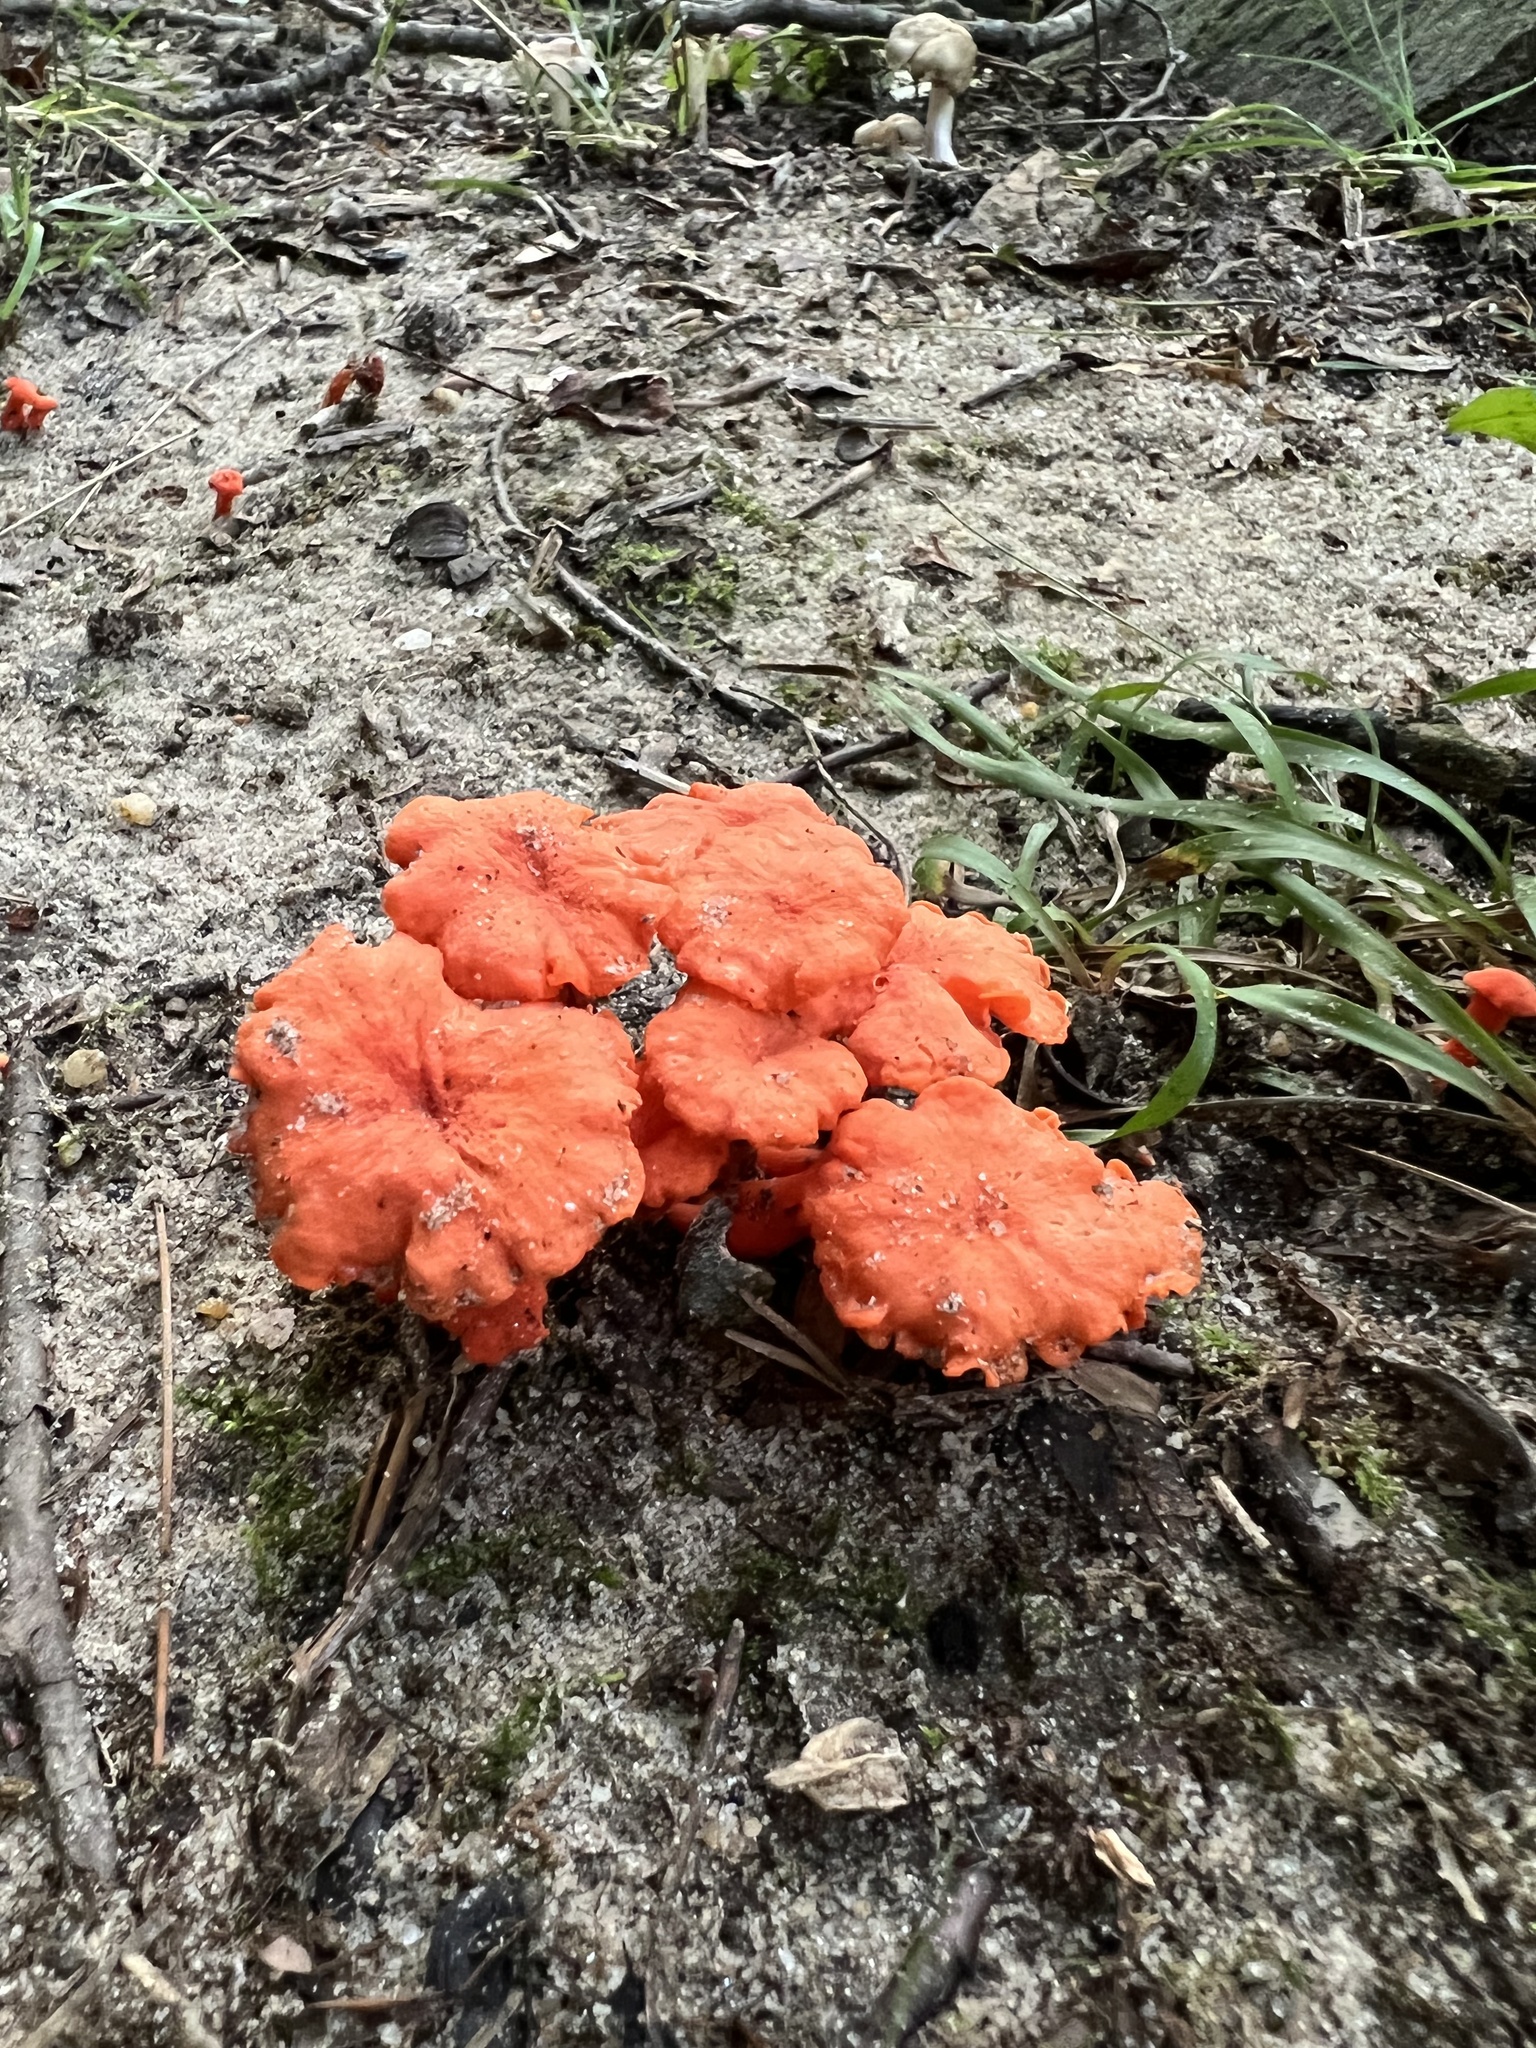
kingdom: Fungi
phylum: Basidiomycota
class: Agaricomycetes
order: Cantharellales
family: Hydnaceae
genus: Cantharellus
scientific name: Cantharellus cinnabarinus
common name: Cinnabar chanterelle
